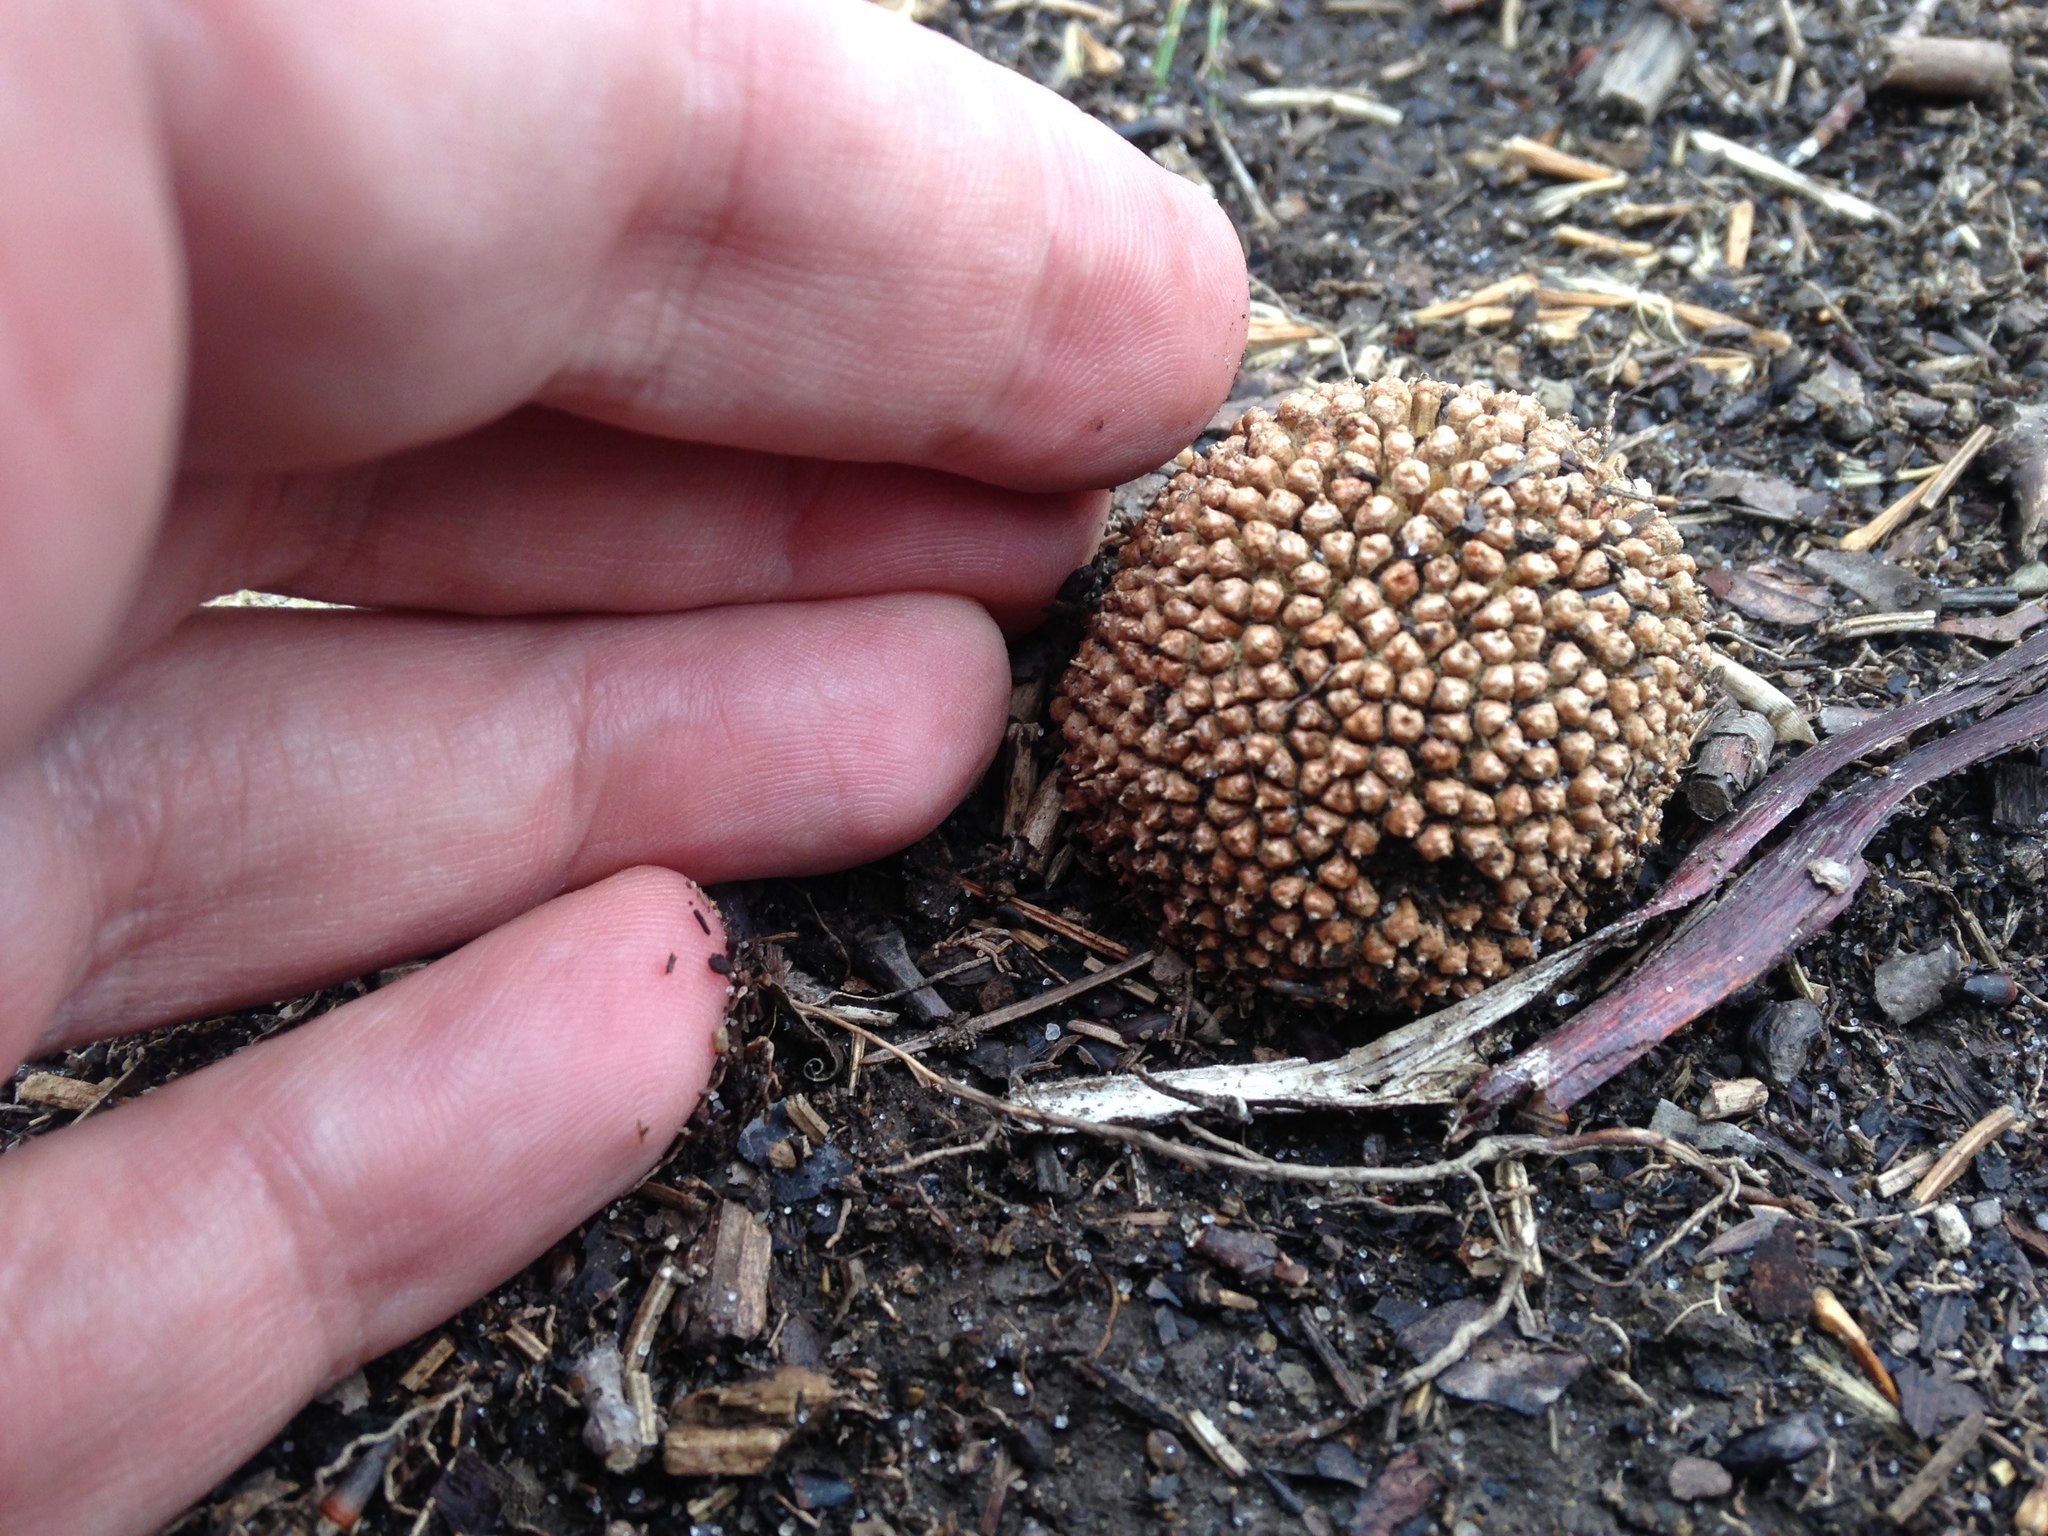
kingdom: Plantae
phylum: Tracheophyta
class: Magnoliopsida
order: Proteales
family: Platanaceae
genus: Platanus
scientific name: Platanus occidentalis
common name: American sycamore
